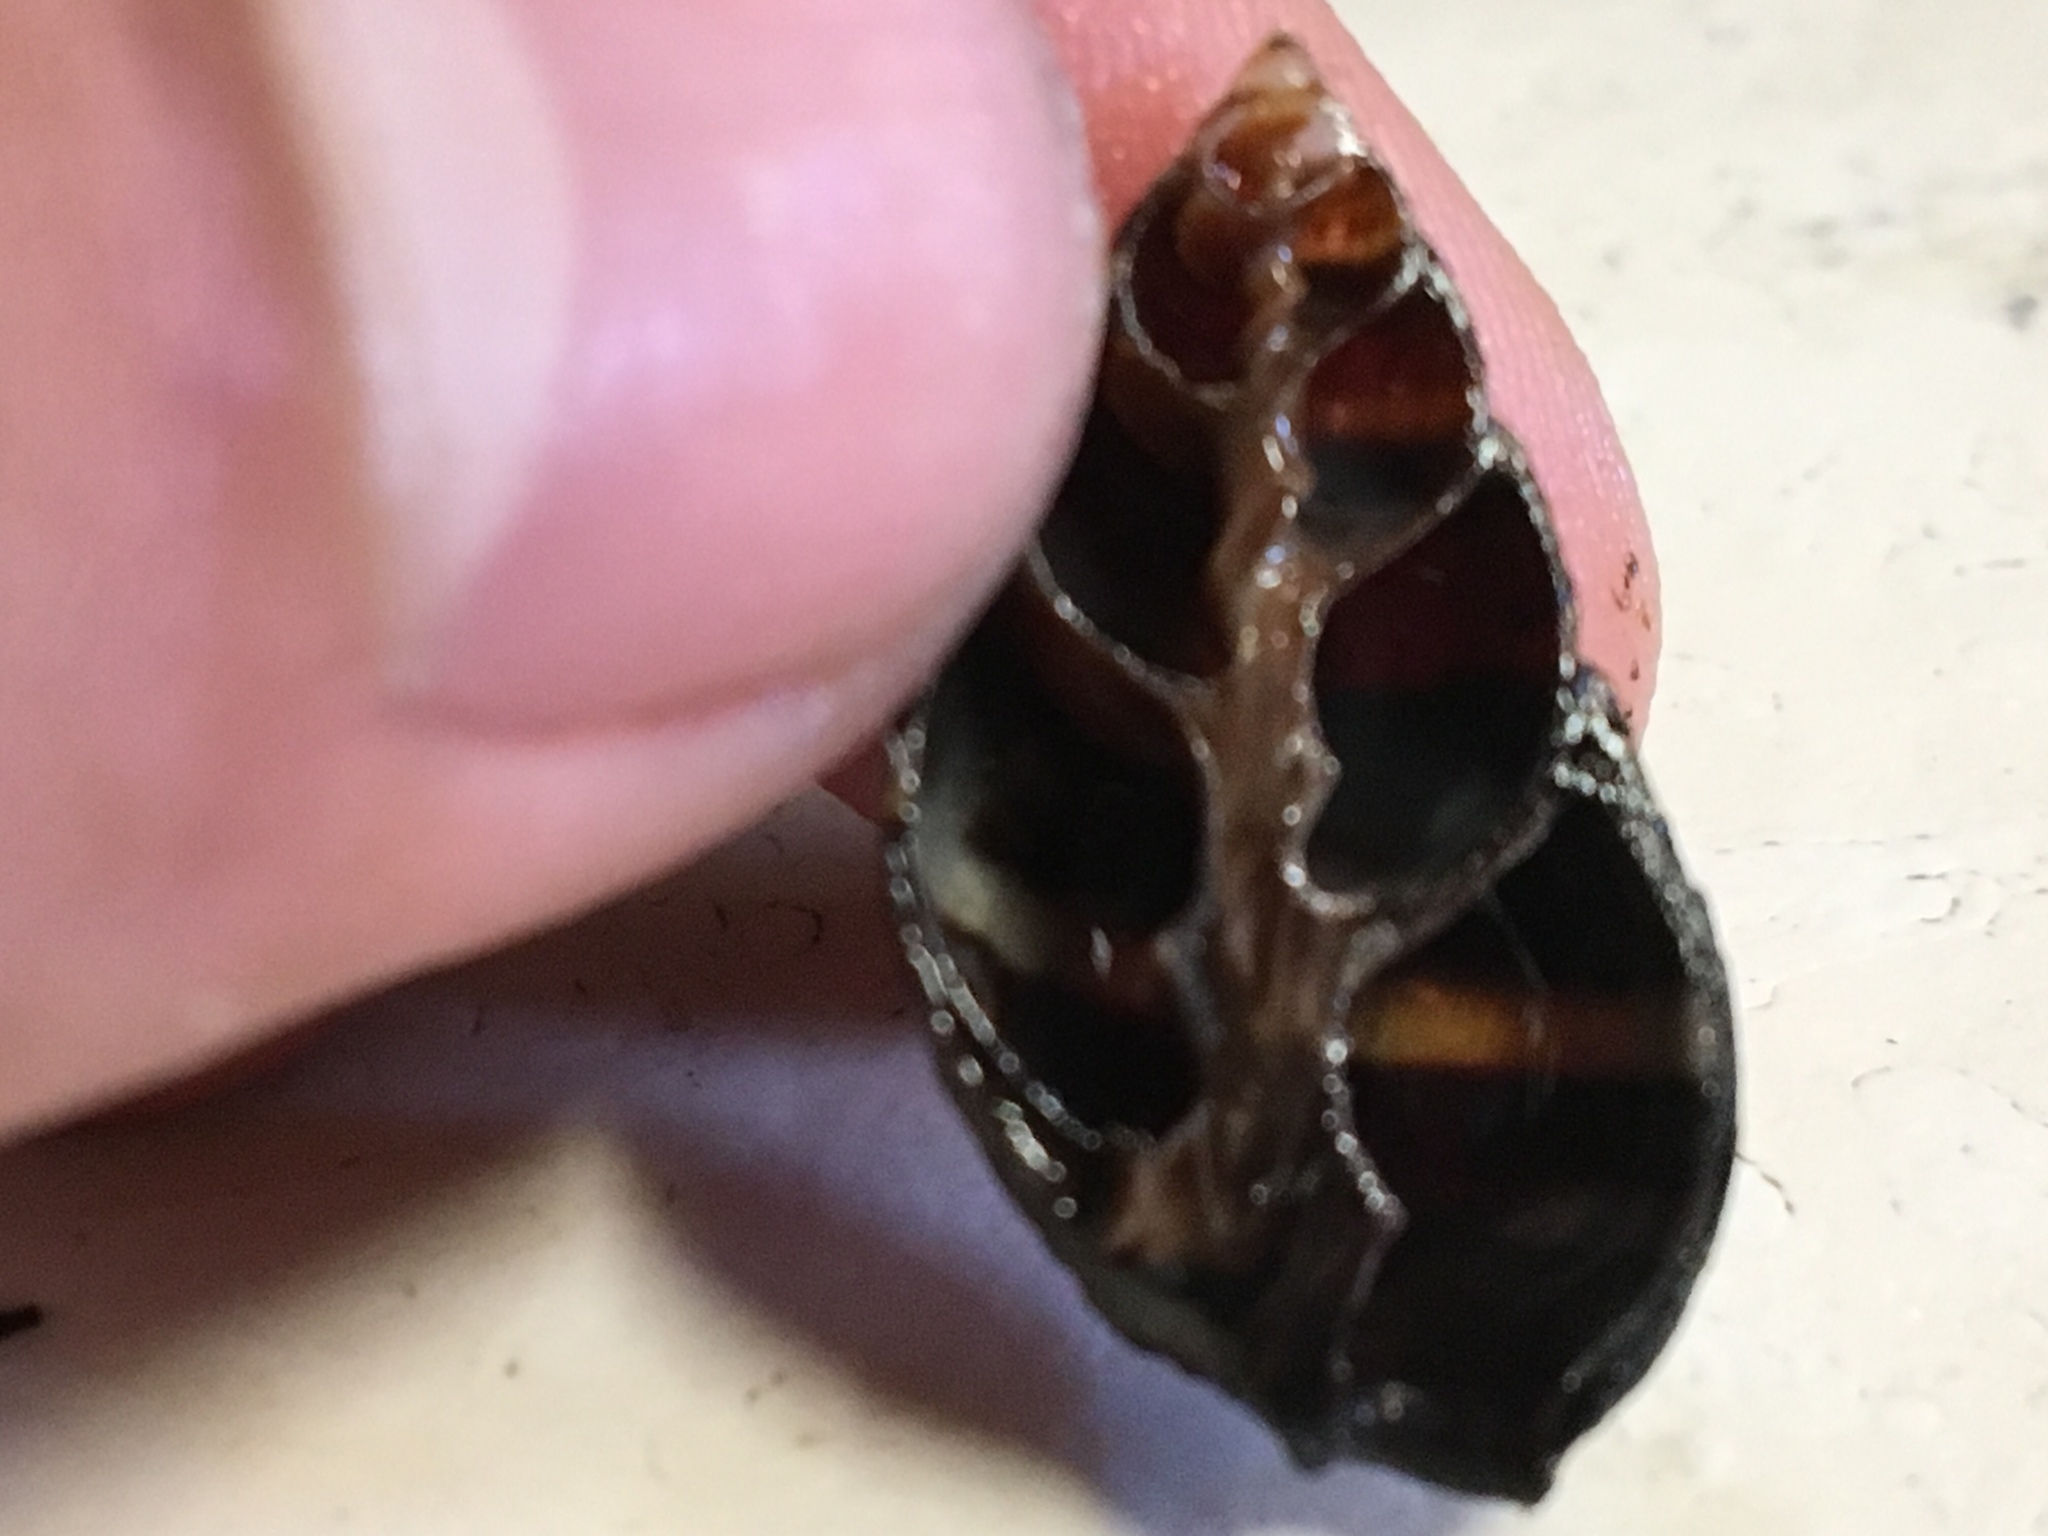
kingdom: Animalia
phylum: Mollusca
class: Gastropoda
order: Neogastropoda
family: Nassariidae
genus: Ilyanassa
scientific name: Ilyanassa obsoleta
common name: Eastern mudsnail
